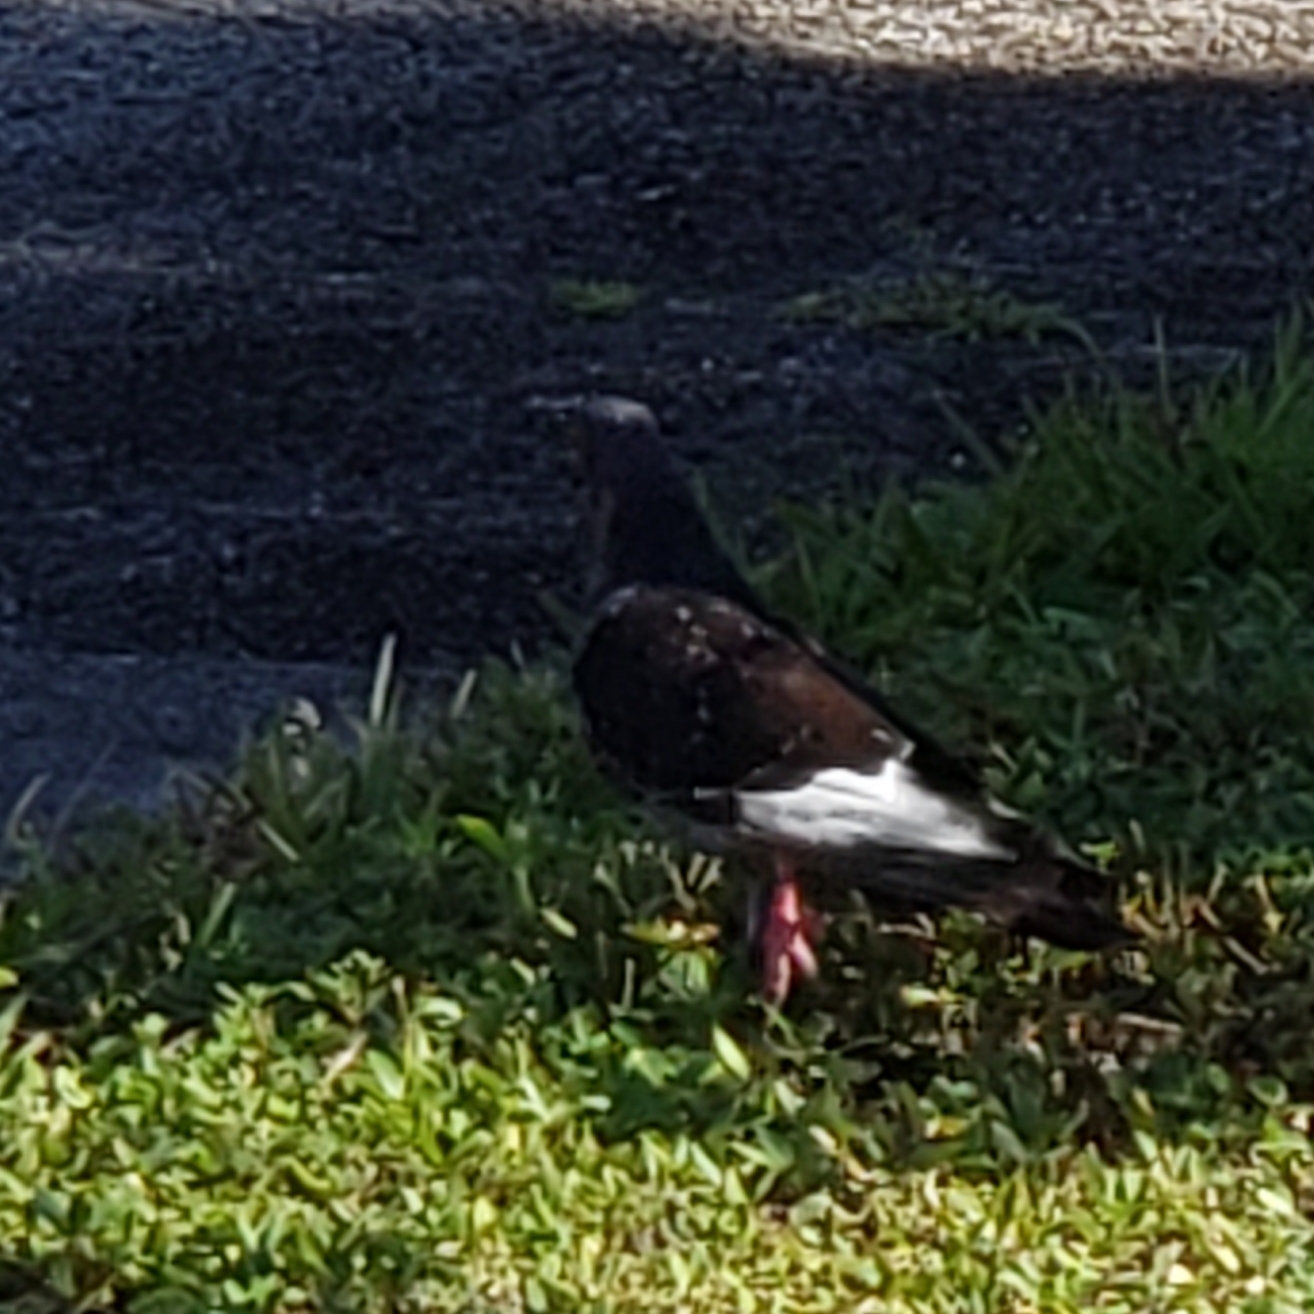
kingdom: Animalia
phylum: Chordata
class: Aves
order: Columbiformes
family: Columbidae
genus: Columba
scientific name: Columba livia
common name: Rock pigeon
